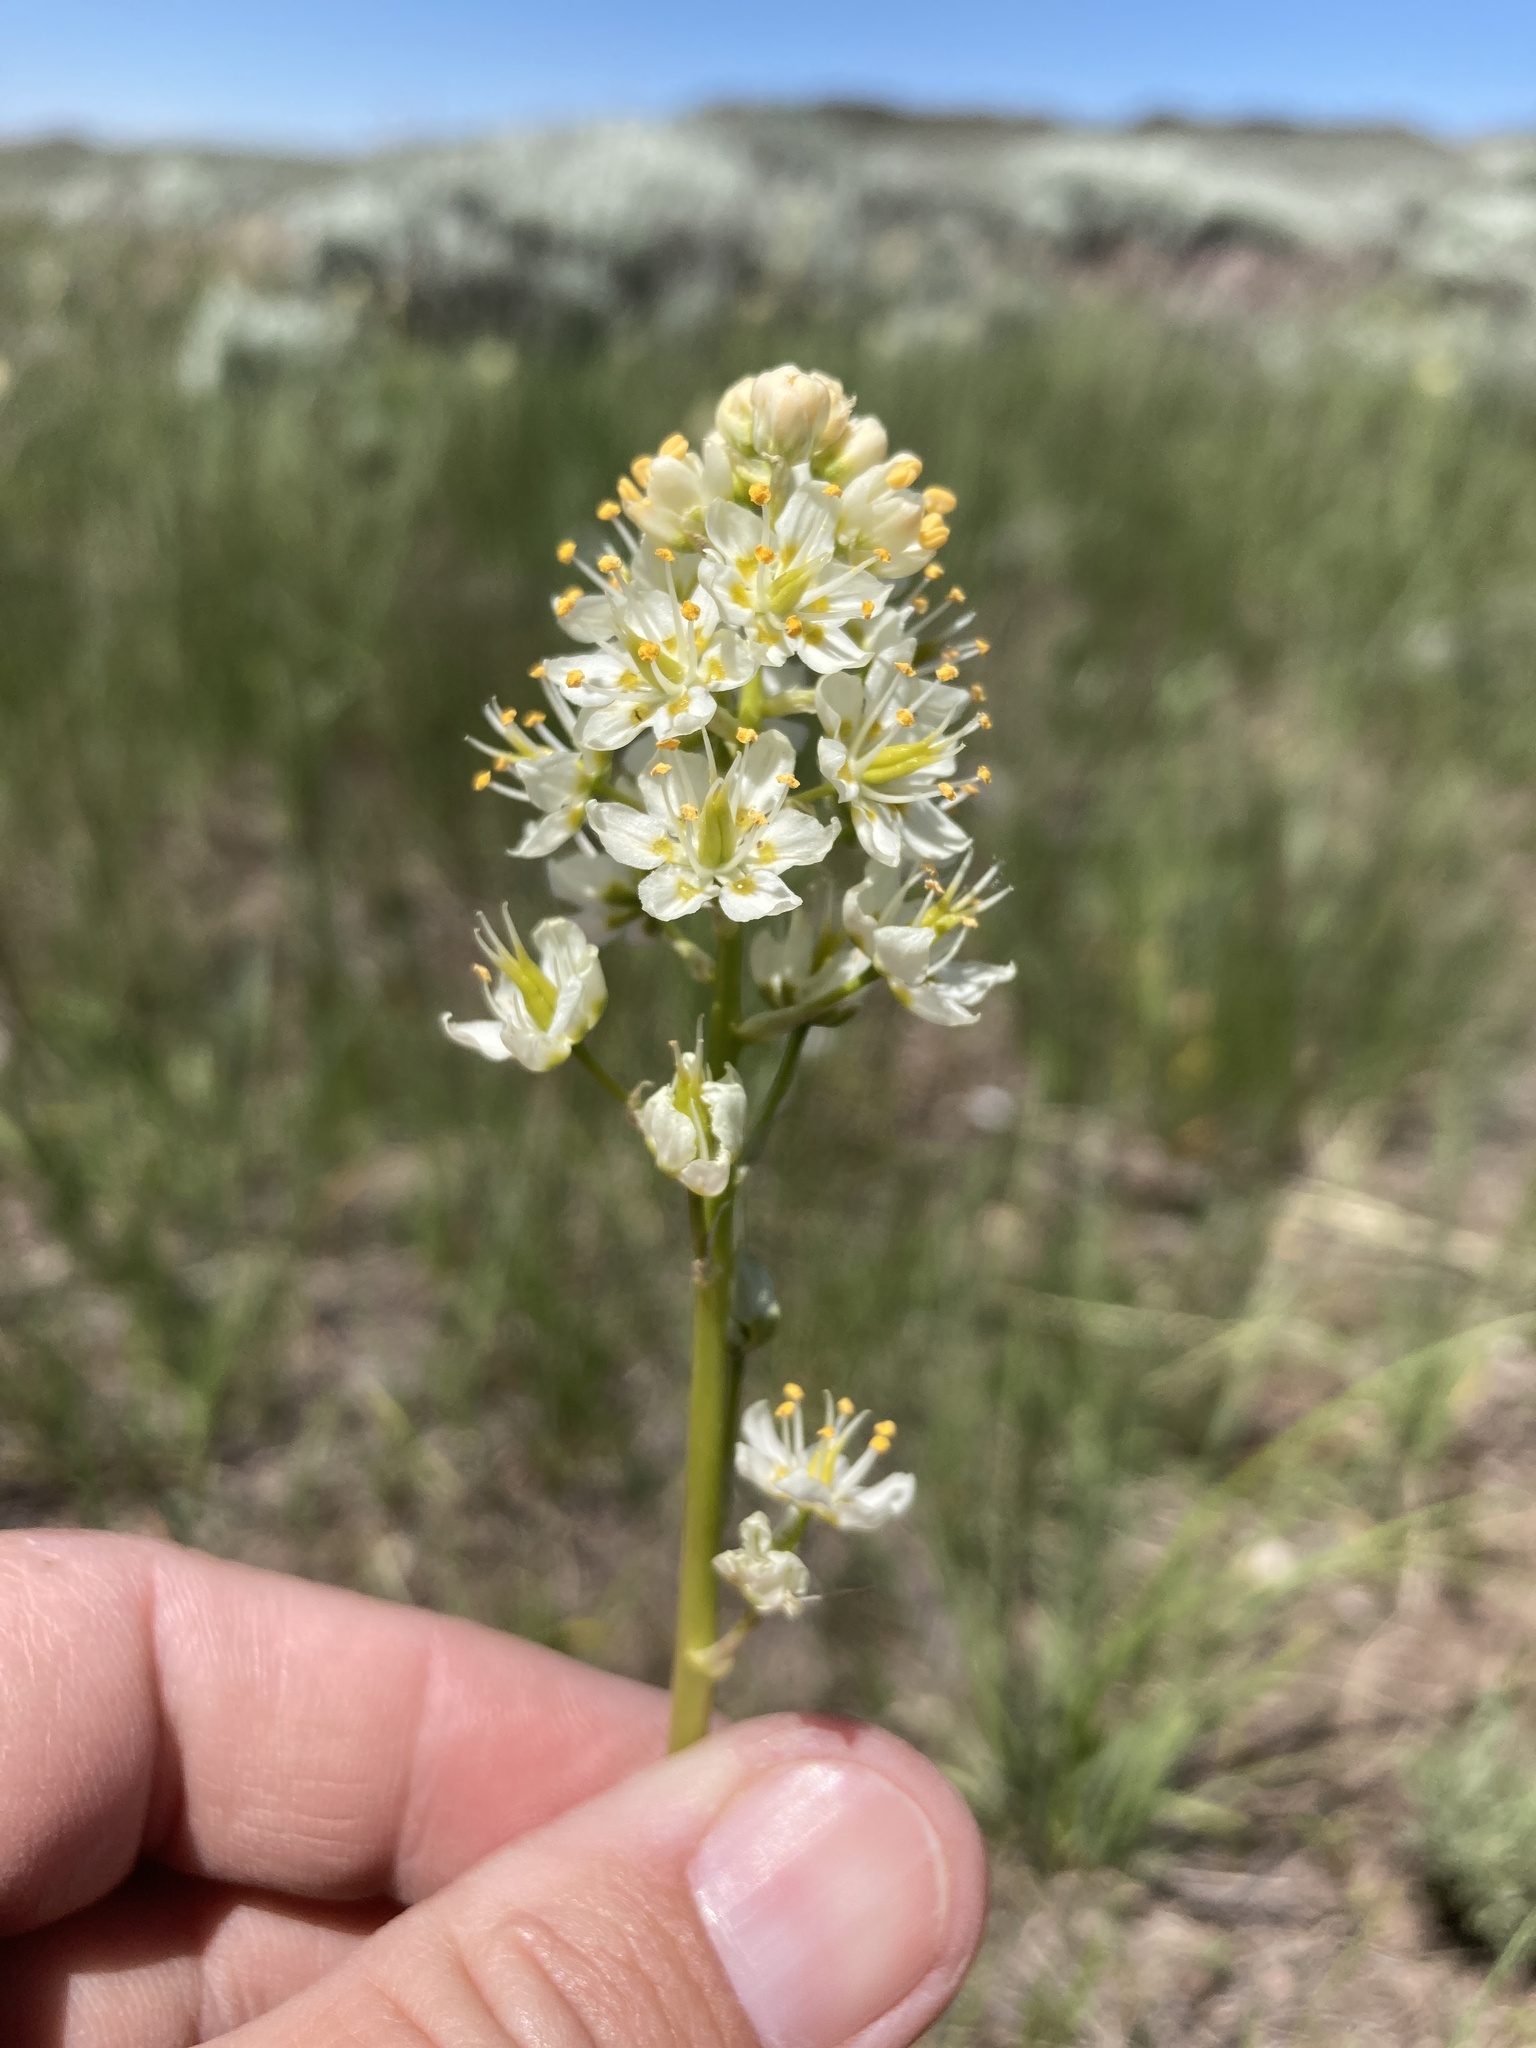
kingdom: Plantae
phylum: Tracheophyta
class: Liliopsida
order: Liliales
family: Melanthiaceae
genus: Toxicoscordion
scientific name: Toxicoscordion venenosum
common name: Meadow death camas
